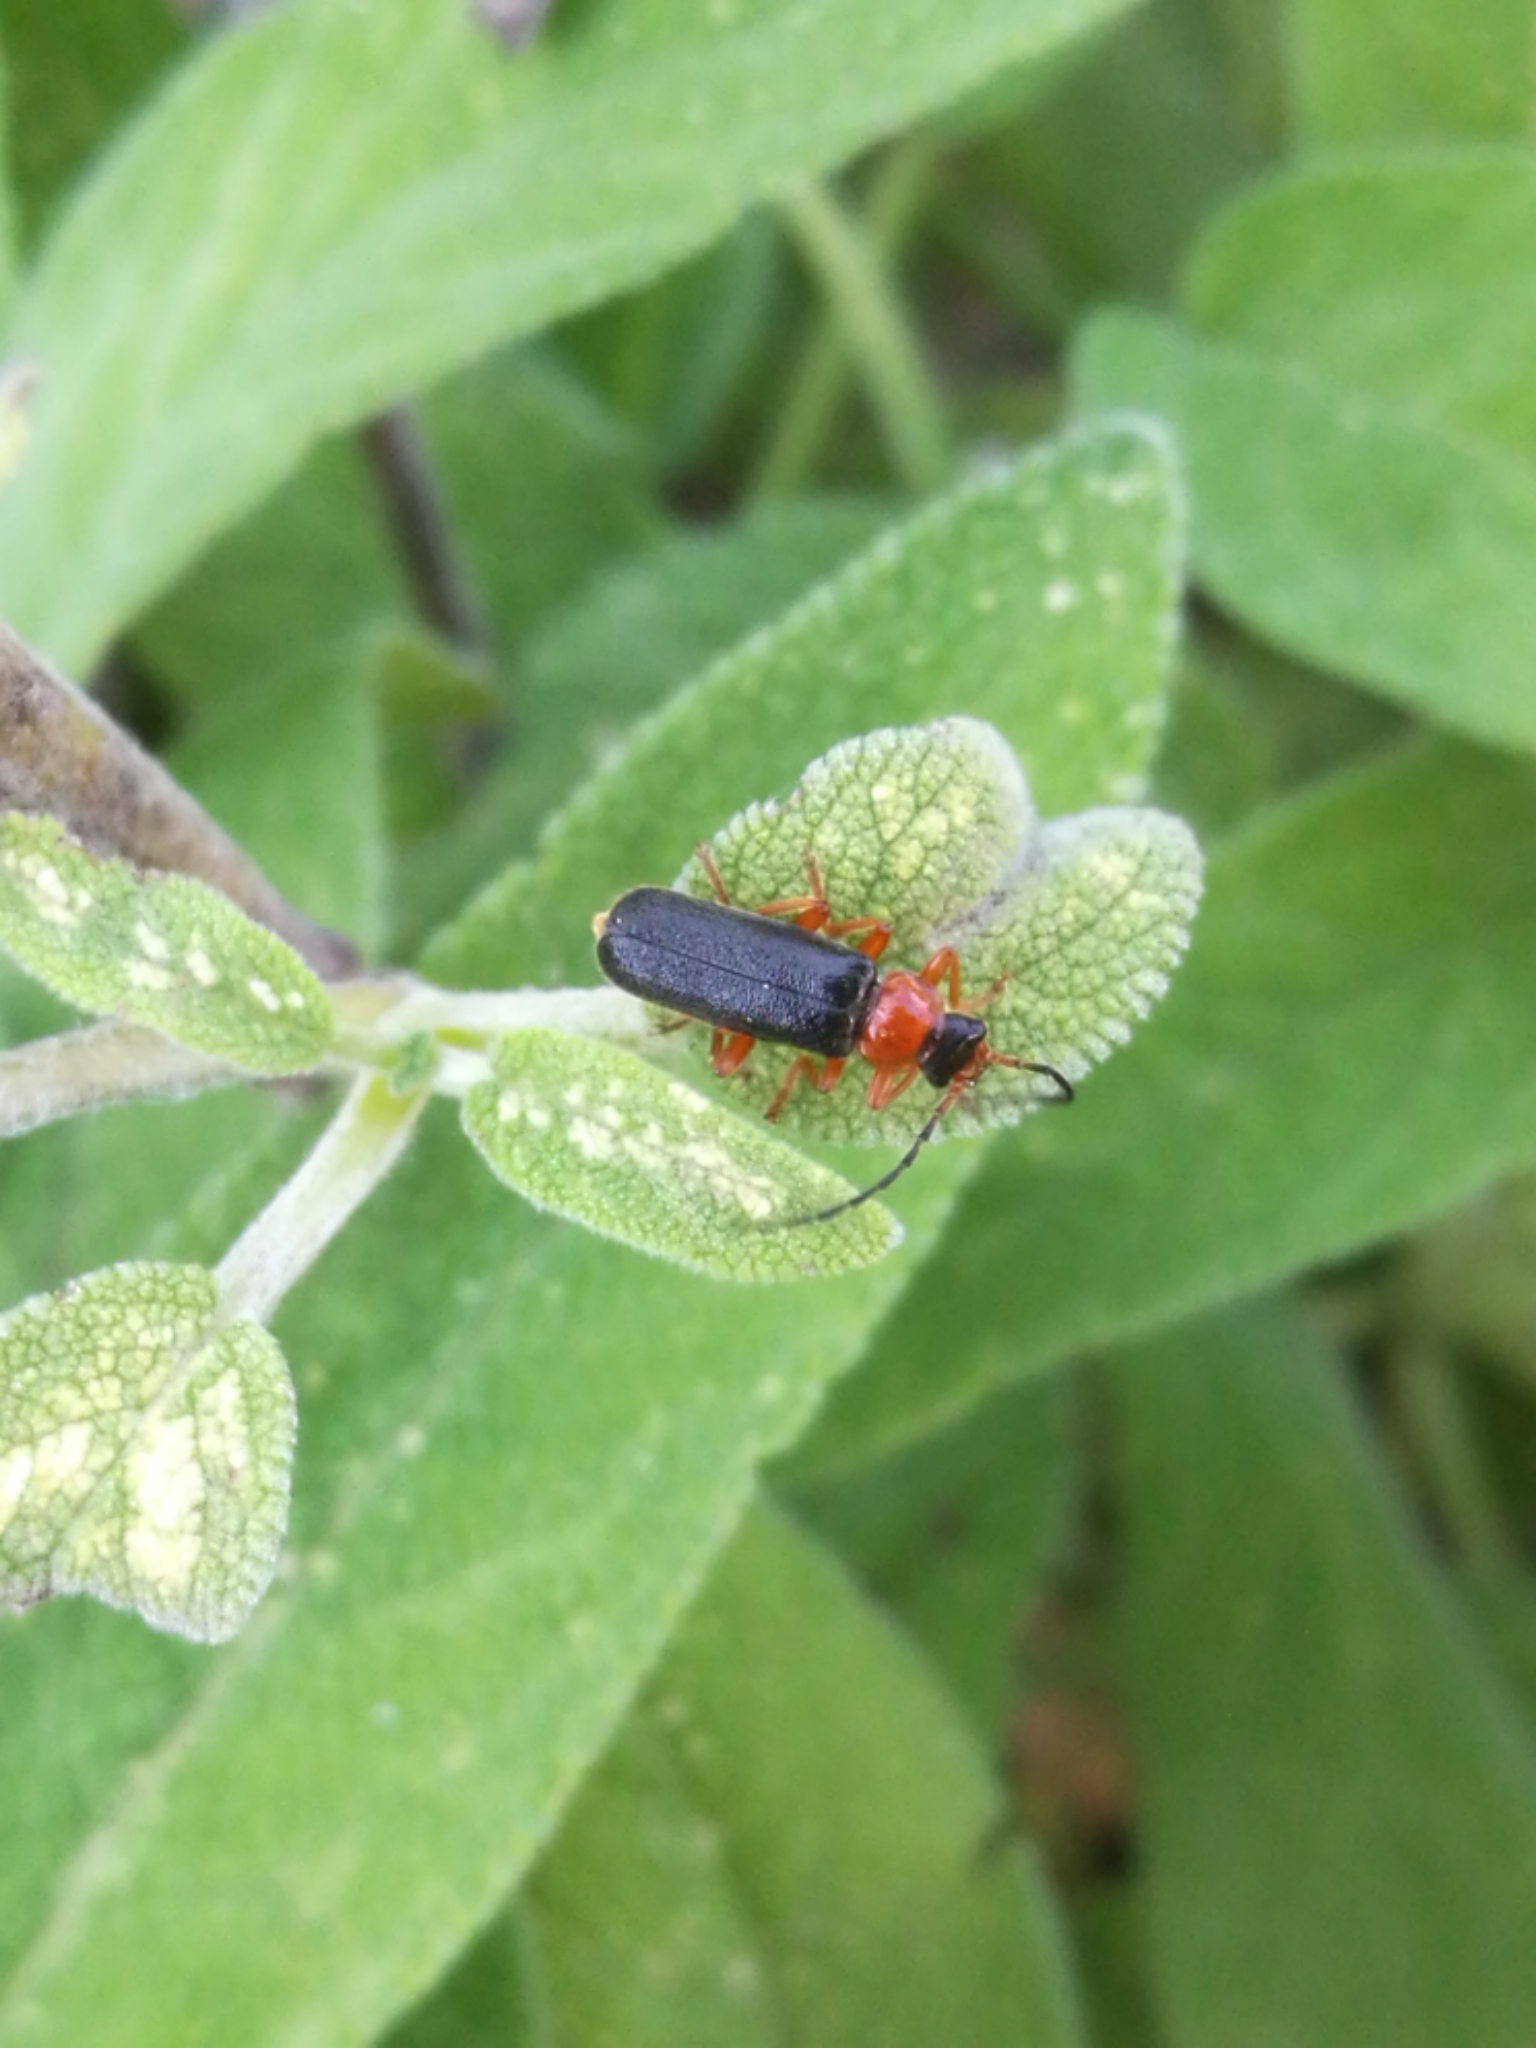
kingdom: Animalia
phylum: Arthropoda
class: Insecta
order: Coleoptera
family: Cantharidae
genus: Cantharis
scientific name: Cantharis flavilabris
